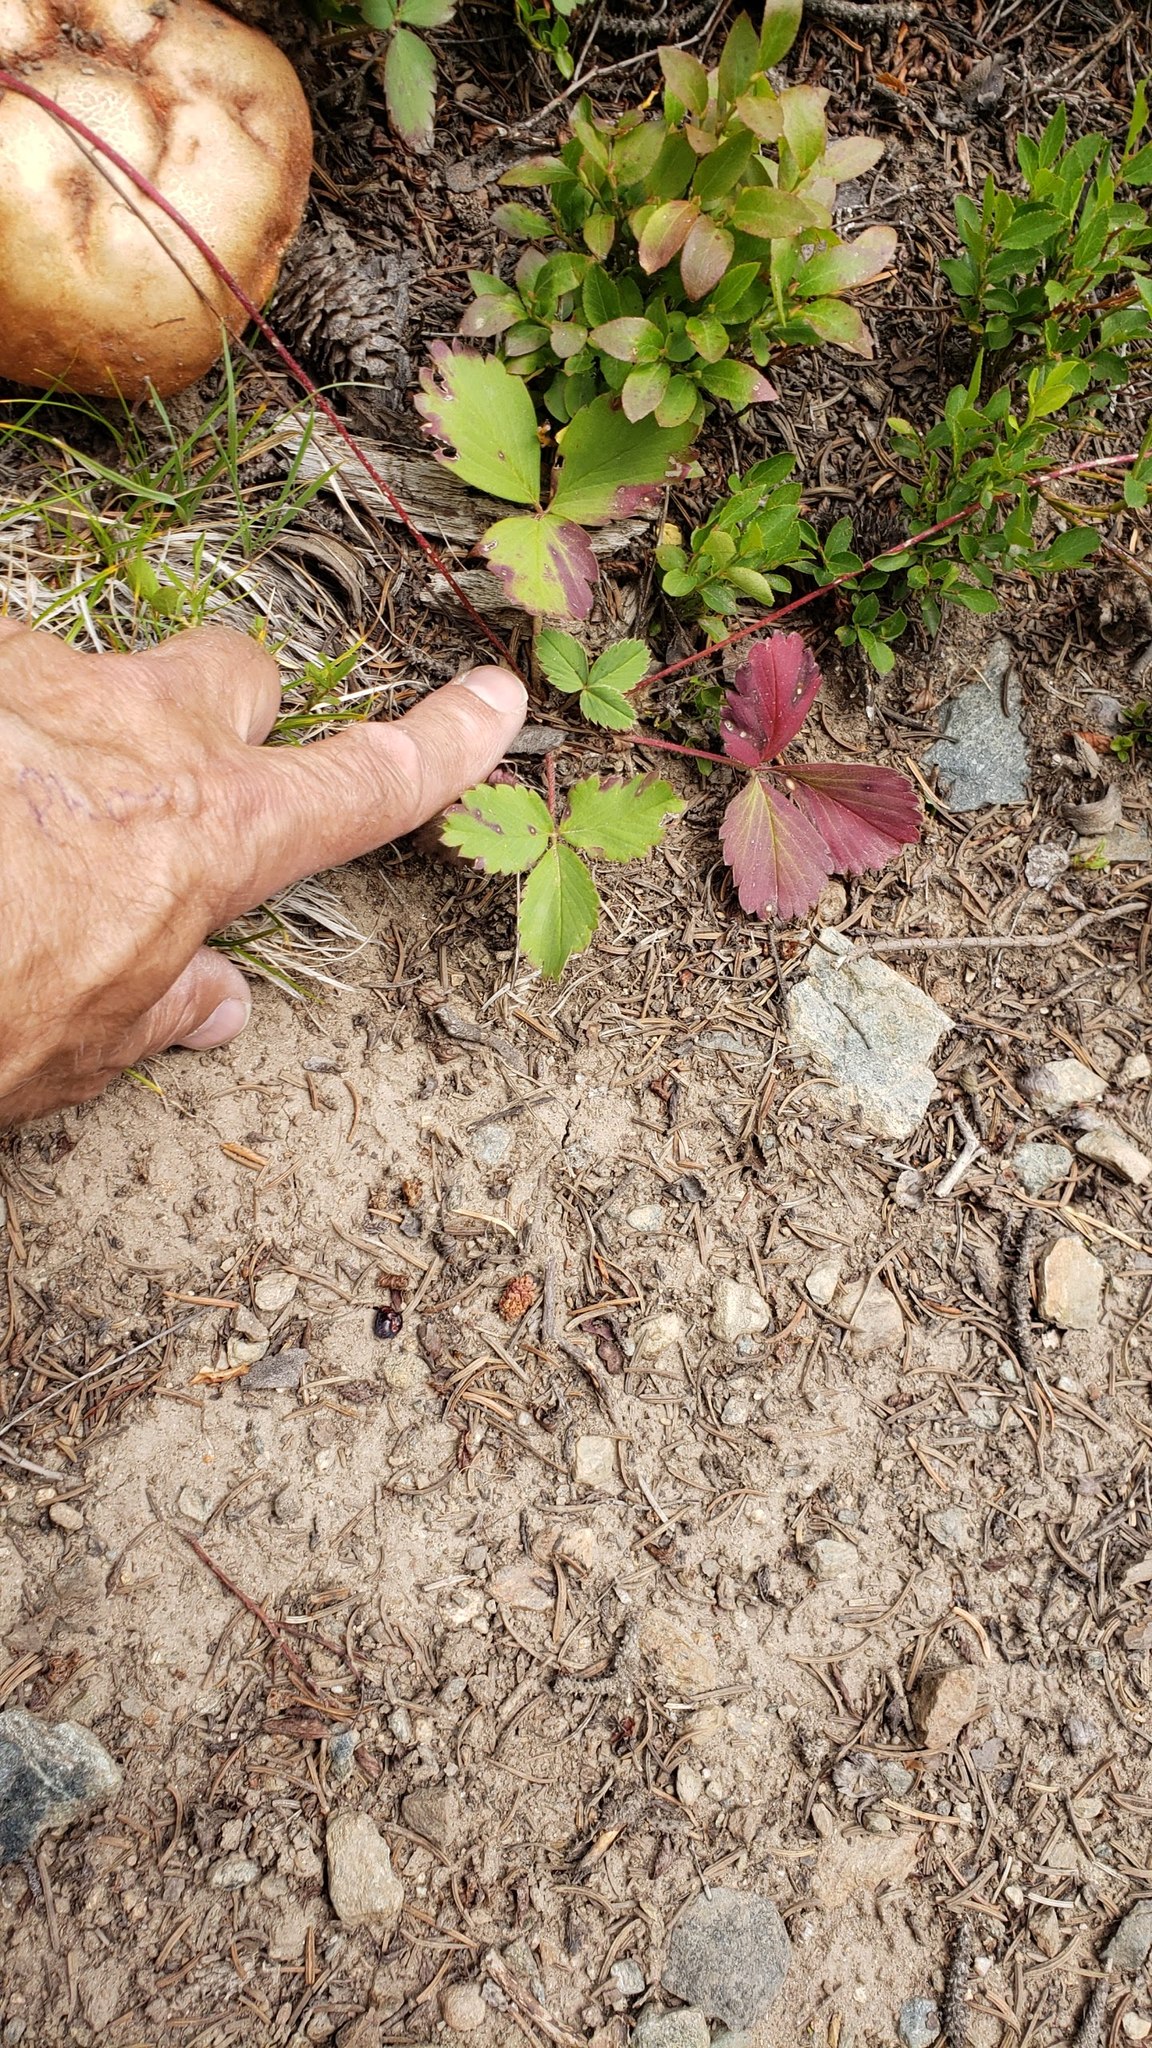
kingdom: Plantae
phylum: Tracheophyta
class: Magnoliopsida
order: Rosales
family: Rosaceae
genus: Fragaria
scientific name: Fragaria virginiana
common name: Thickleaved wild strawberry
